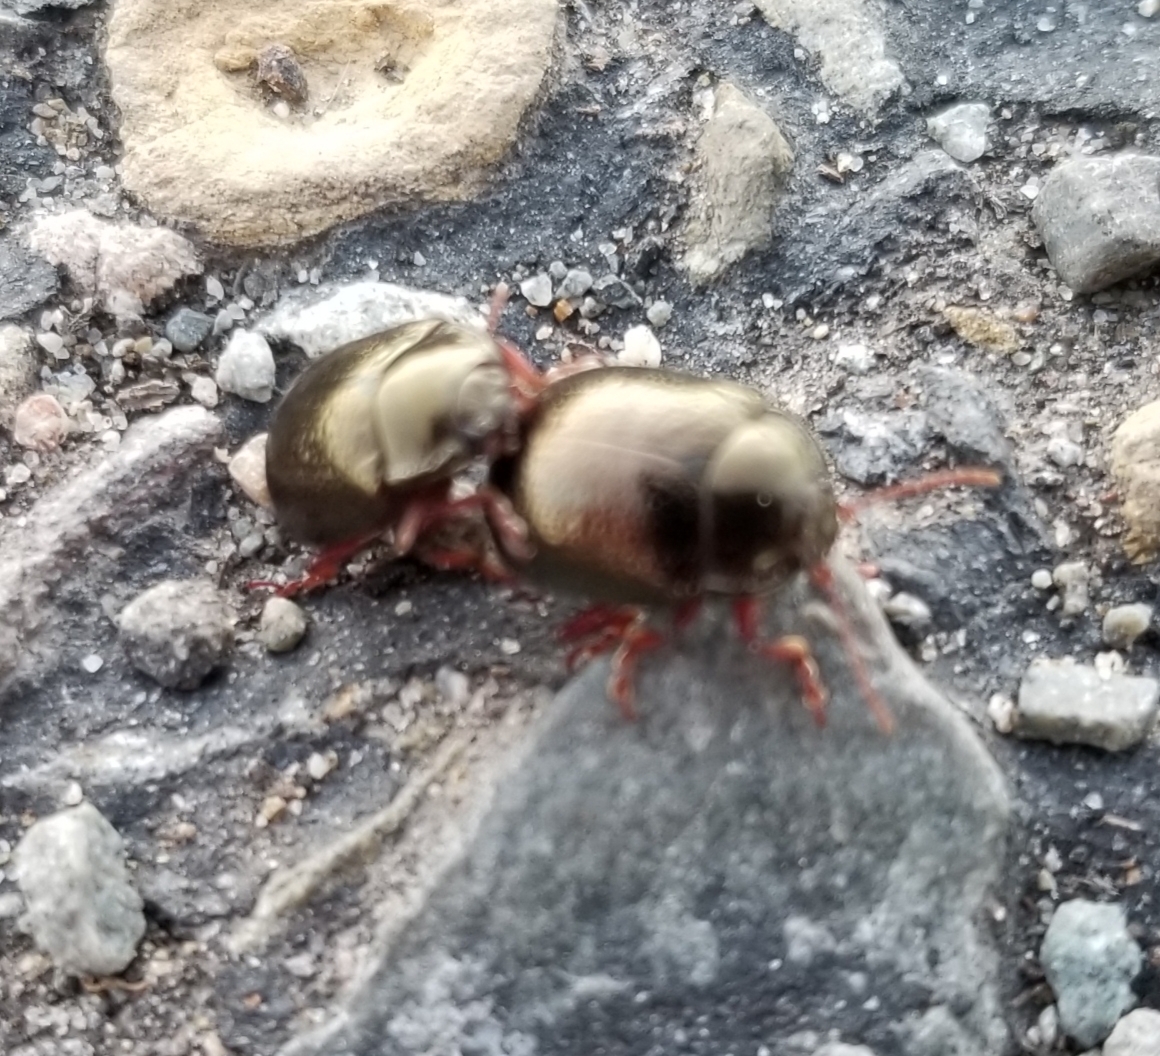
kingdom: Animalia
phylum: Arthropoda
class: Insecta
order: Coleoptera
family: Chrysomelidae
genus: Chrysolina
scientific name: Chrysolina bankii
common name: Leaf beetle
